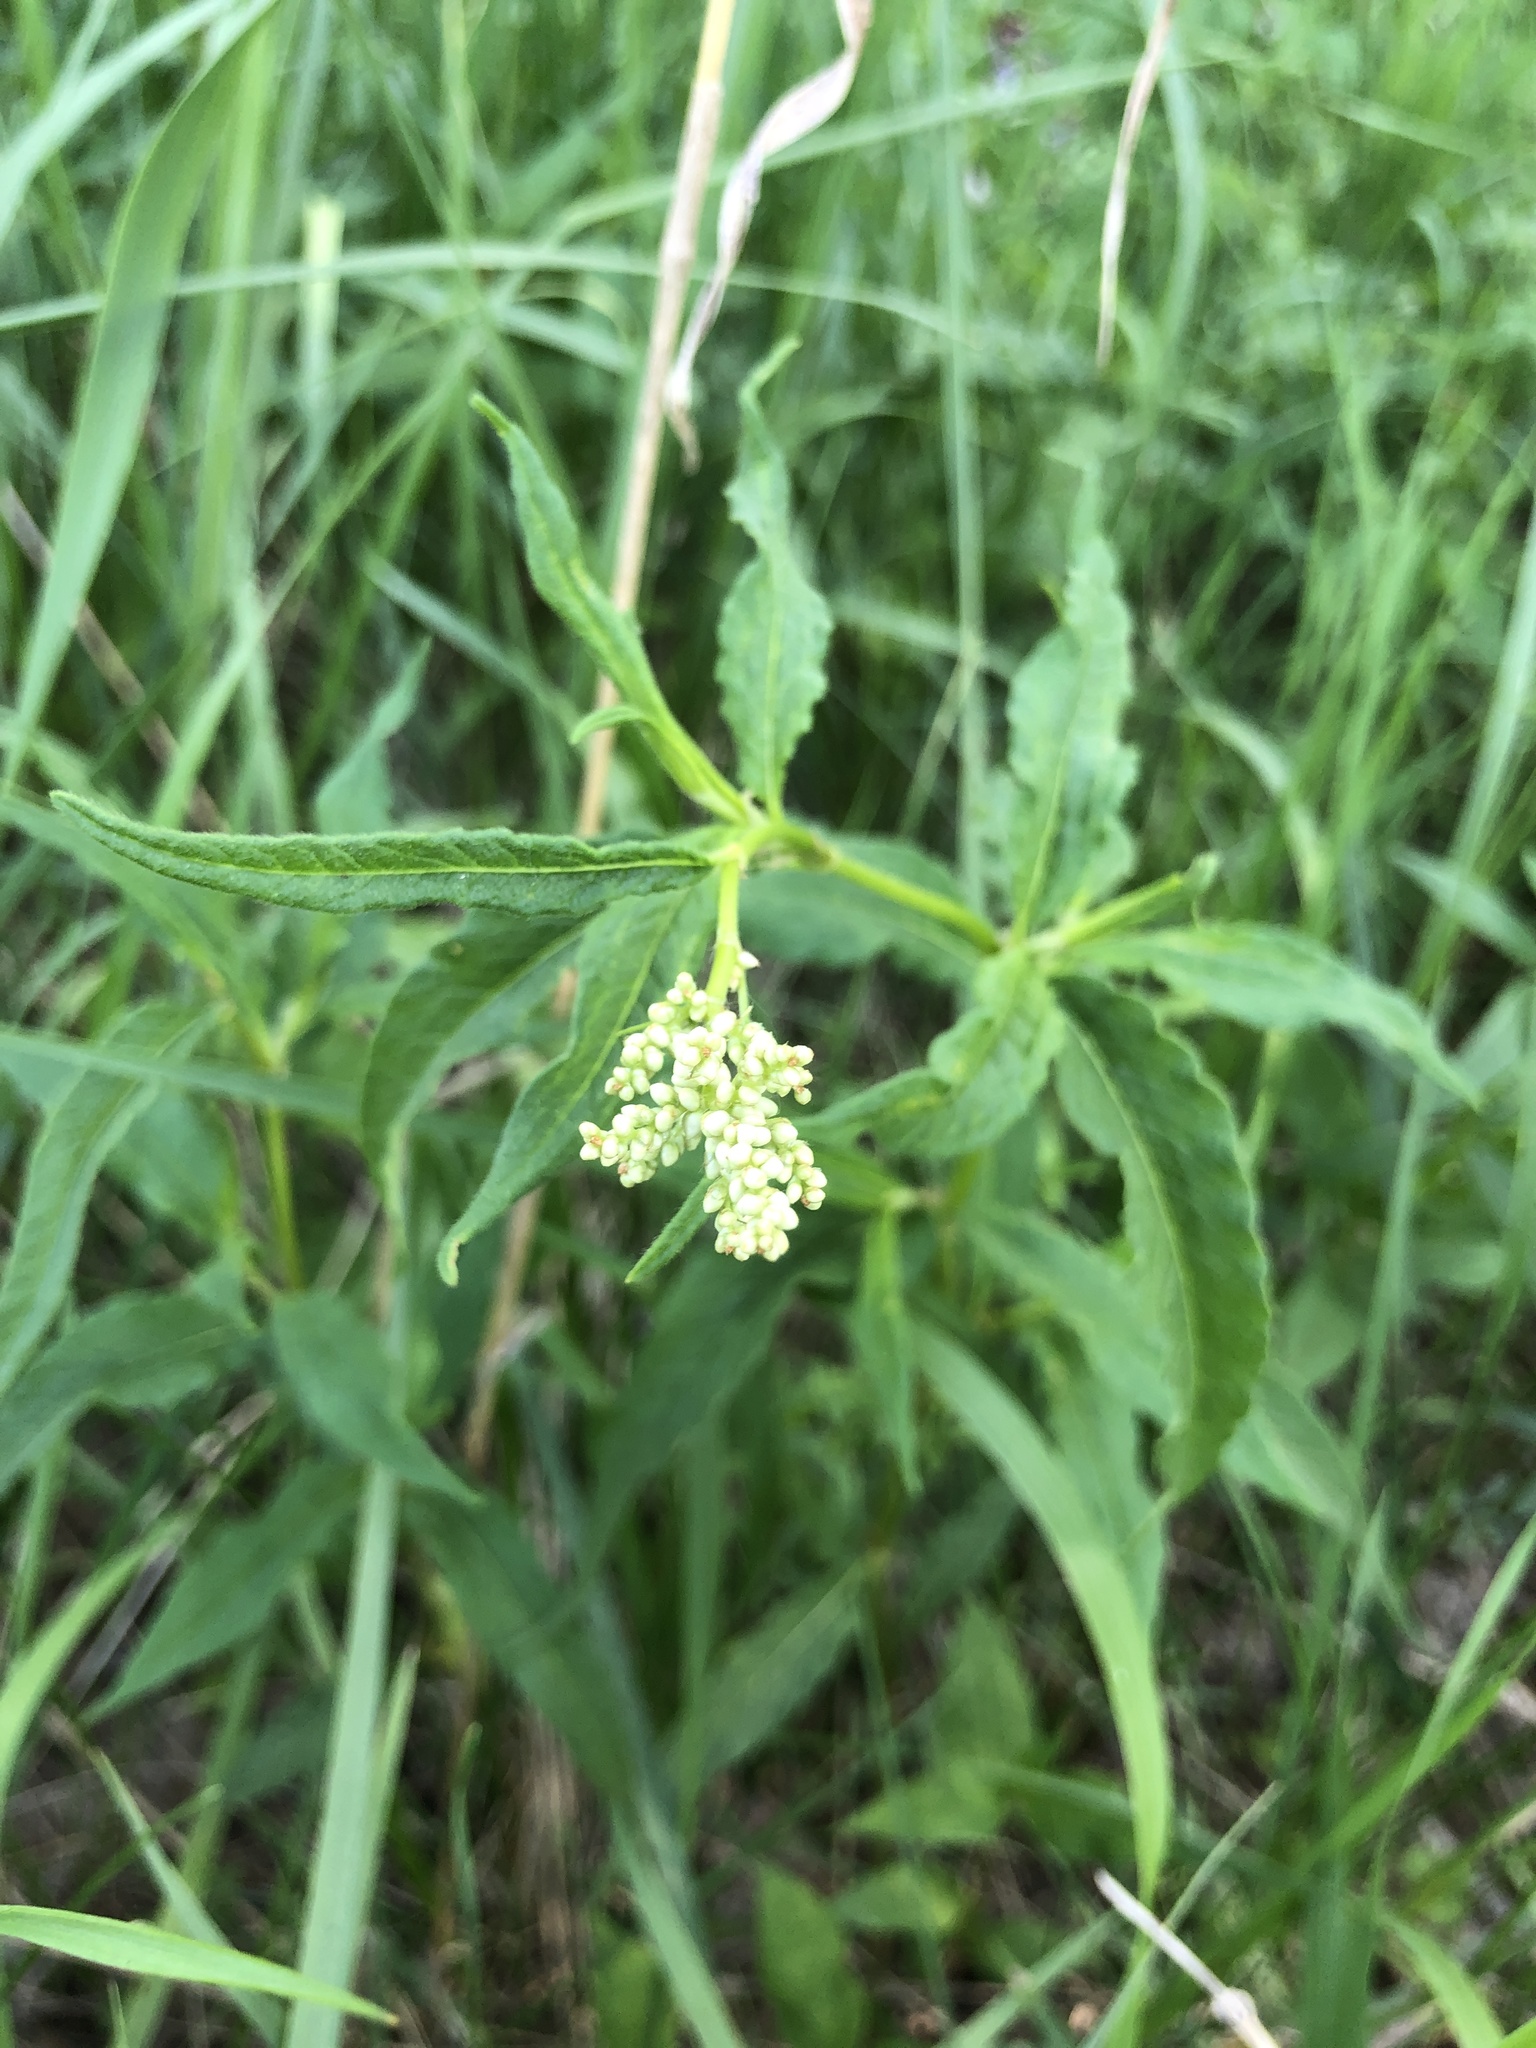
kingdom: Plantae
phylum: Tracheophyta
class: Magnoliopsida
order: Caryophyllales
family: Polygonaceae
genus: Koenigia
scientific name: Koenigia alpina
